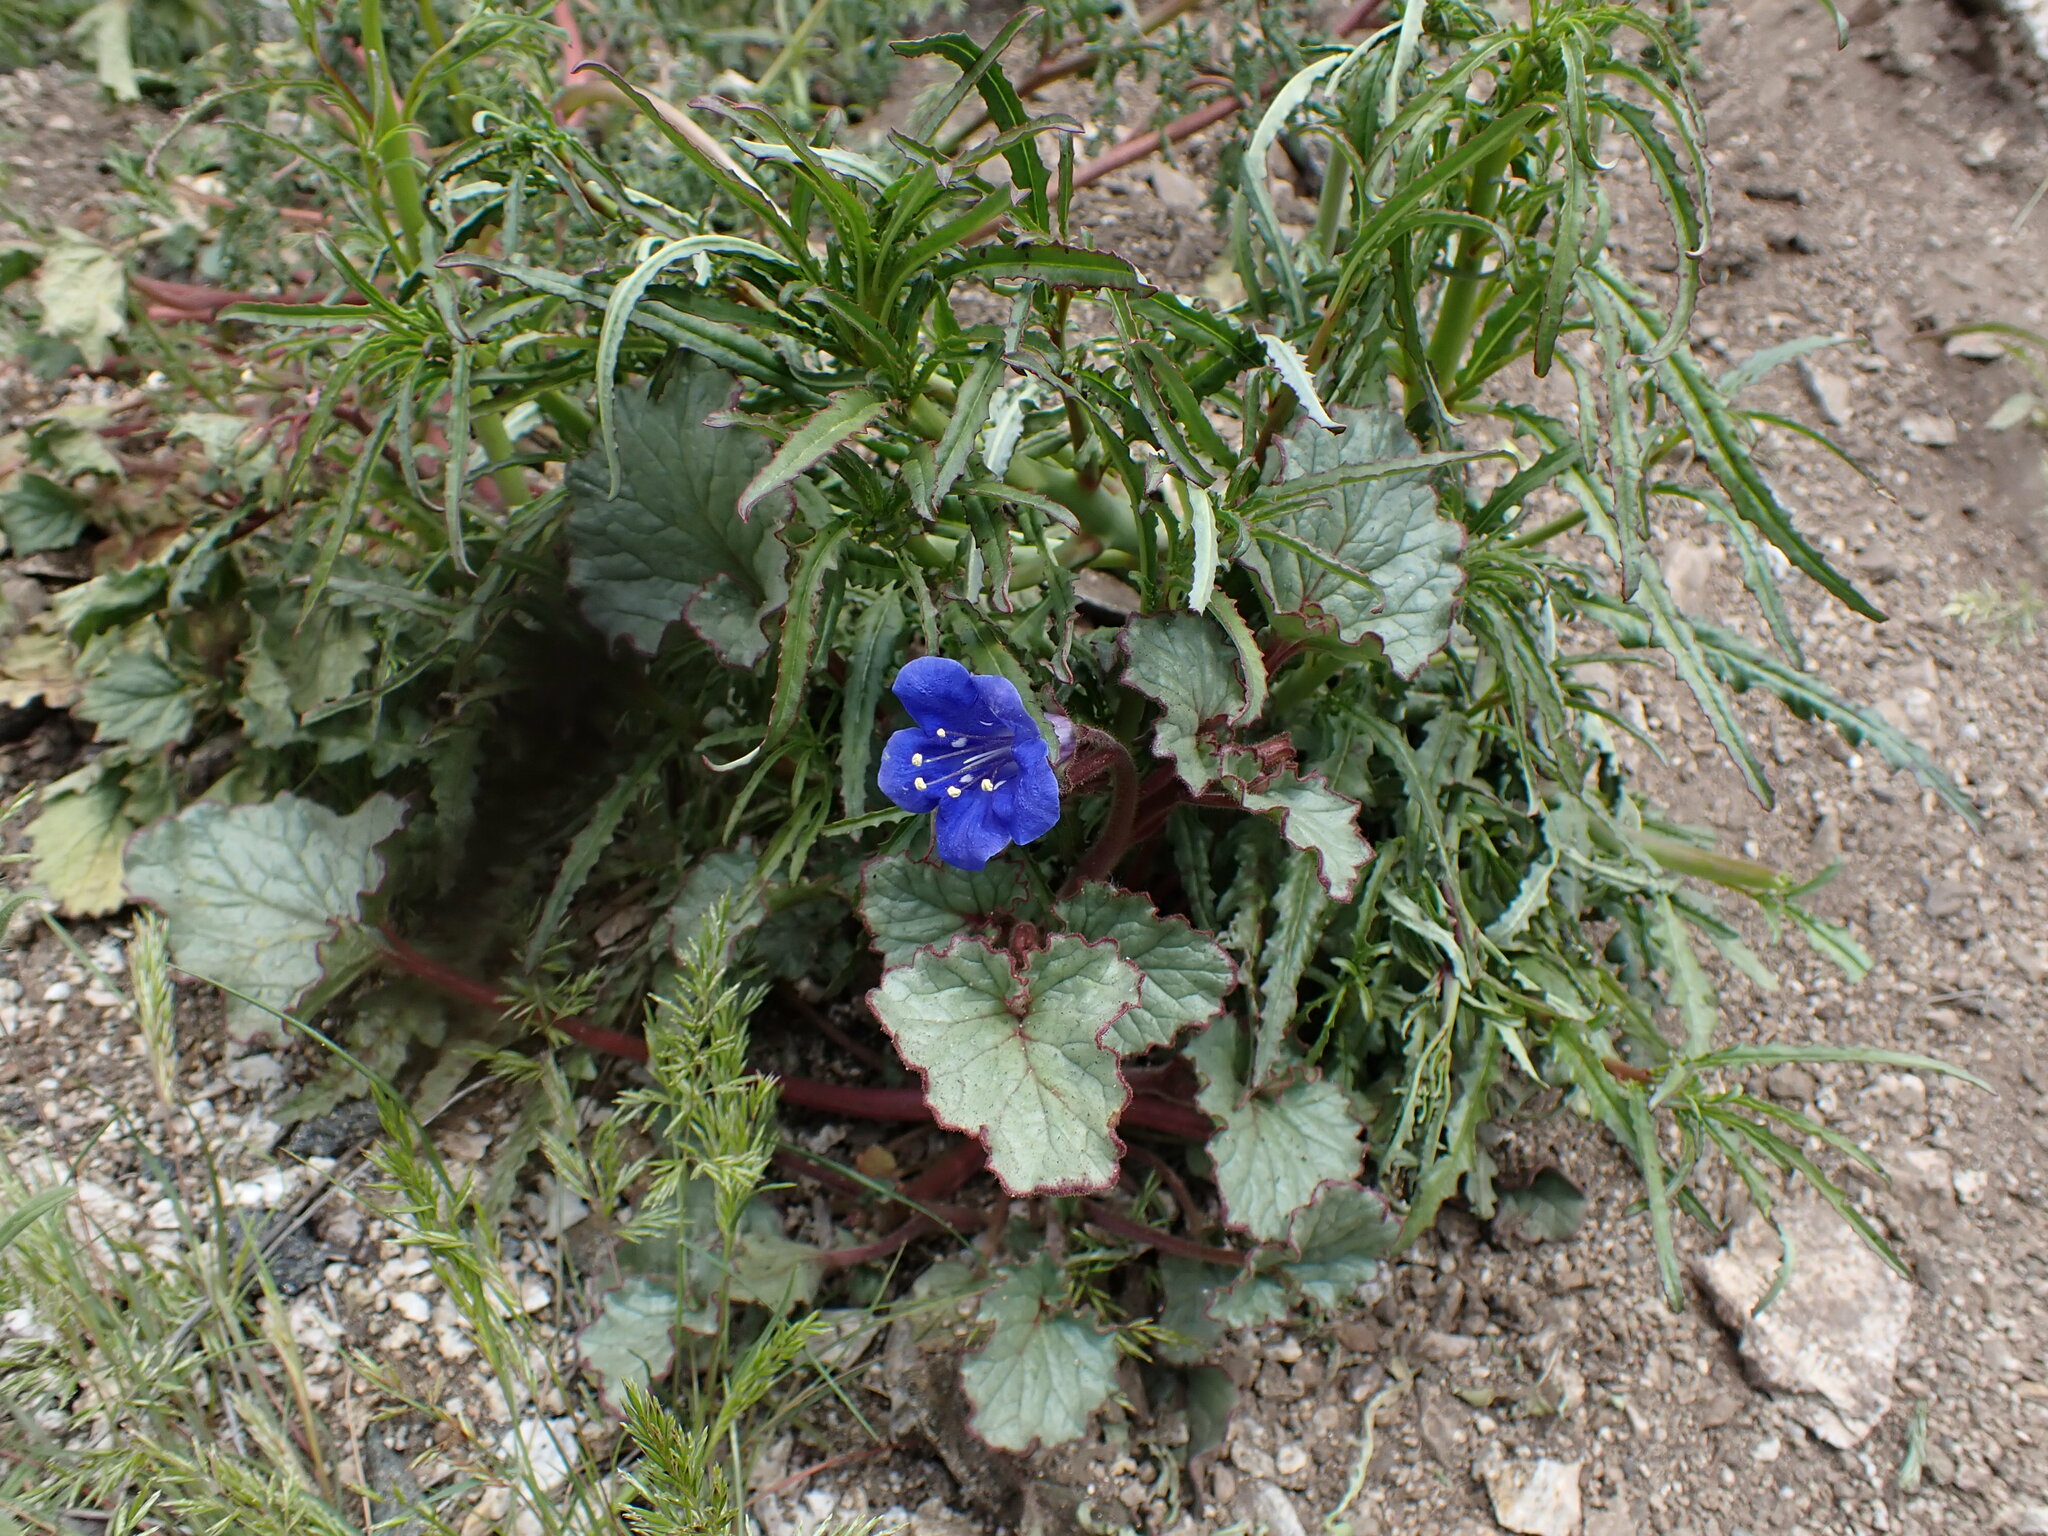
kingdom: Plantae
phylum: Tracheophyta
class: Magnoliopsida
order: Boraginales
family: Hydrophyllaceae
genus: Phacelia
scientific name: Phacelia campanularia
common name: California bluebell
